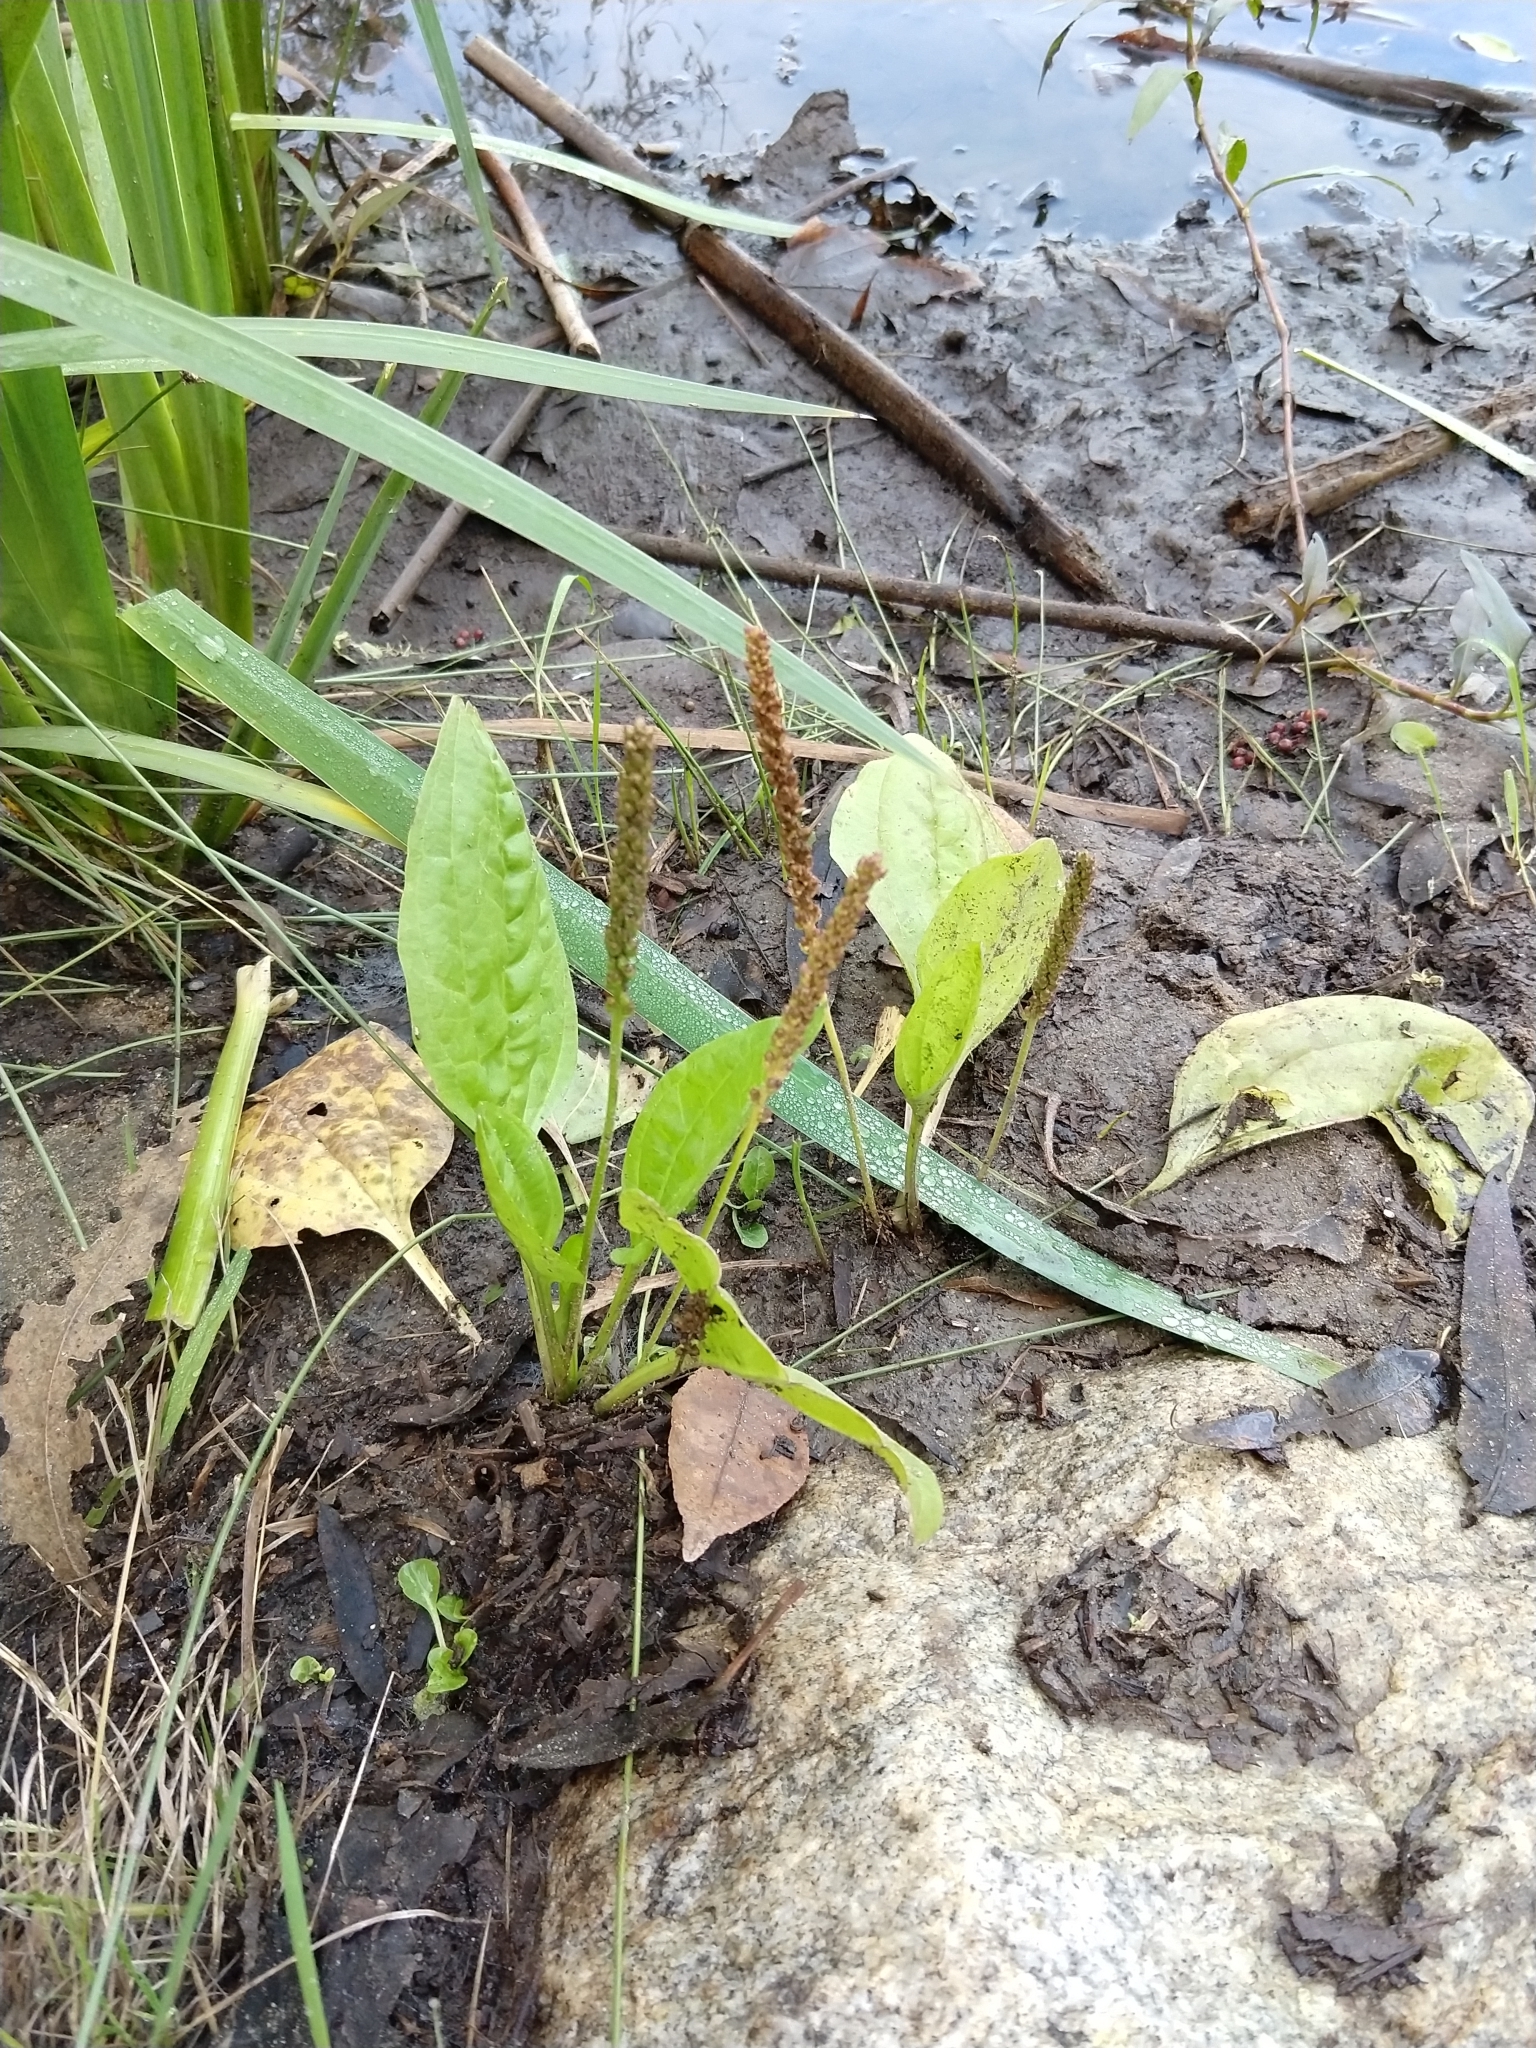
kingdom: Plantae
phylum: Tracheophyta
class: Magnoliopsida
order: Lamiales
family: Plantaginaceae
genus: Plantago
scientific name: Plantago major
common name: Common plantain
